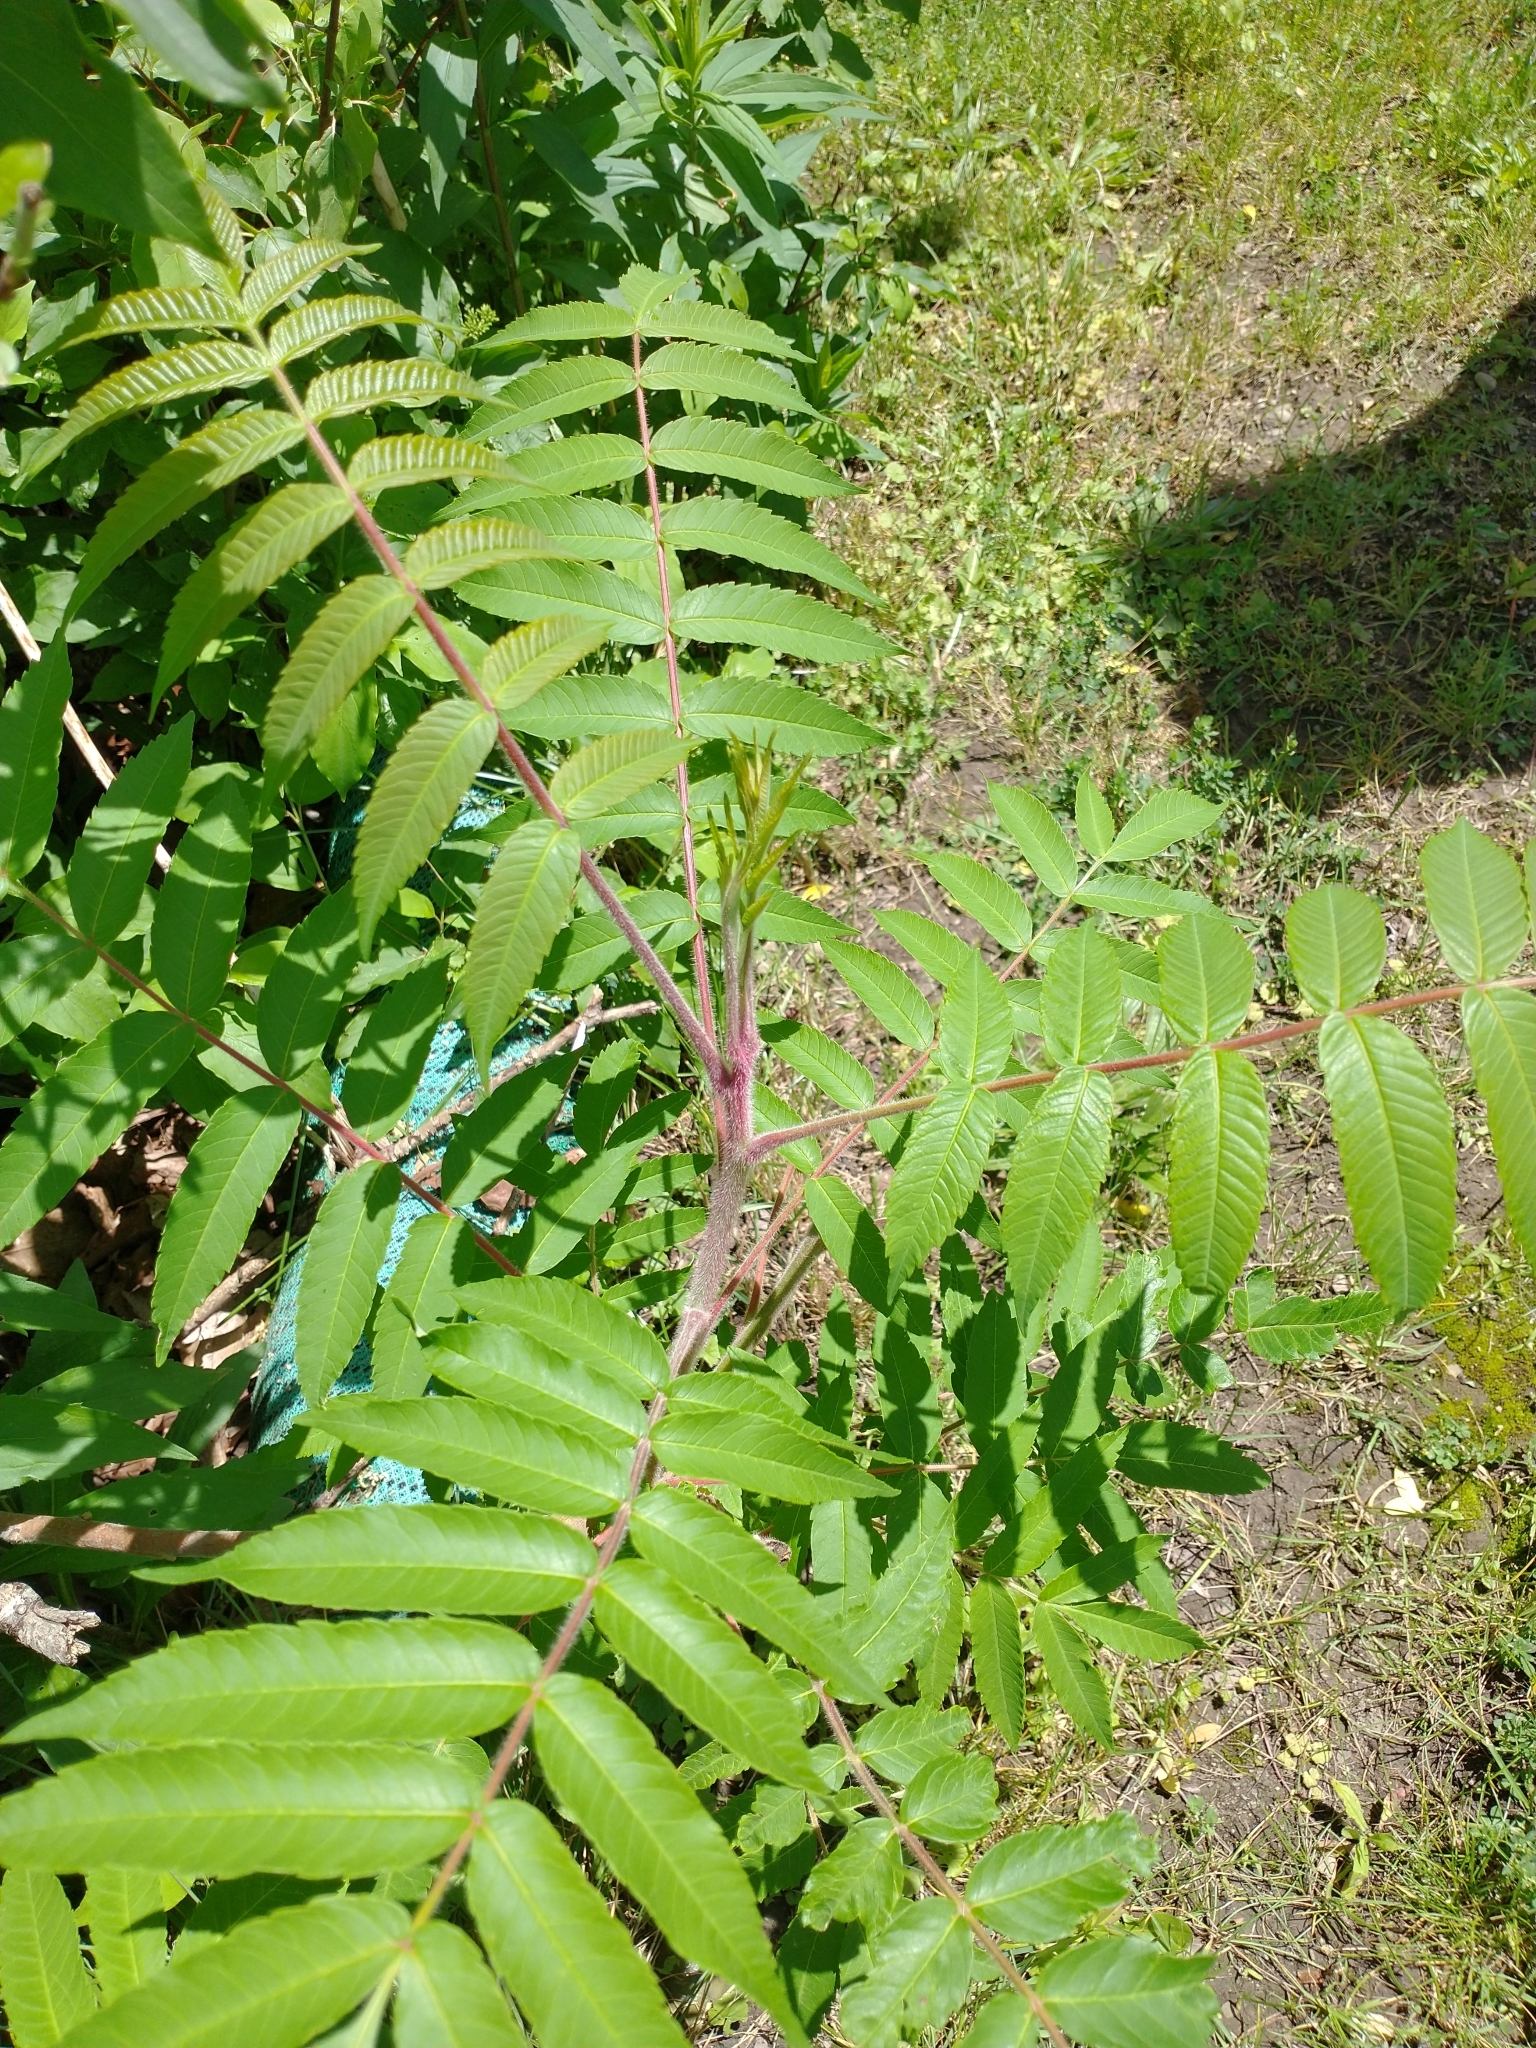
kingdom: Plantae
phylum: Tracheophyta
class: Magnoliopsida
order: Sapindales
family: Anacardiaceae
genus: Rhus
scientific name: Rhus typhina
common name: Staghorn sumac
